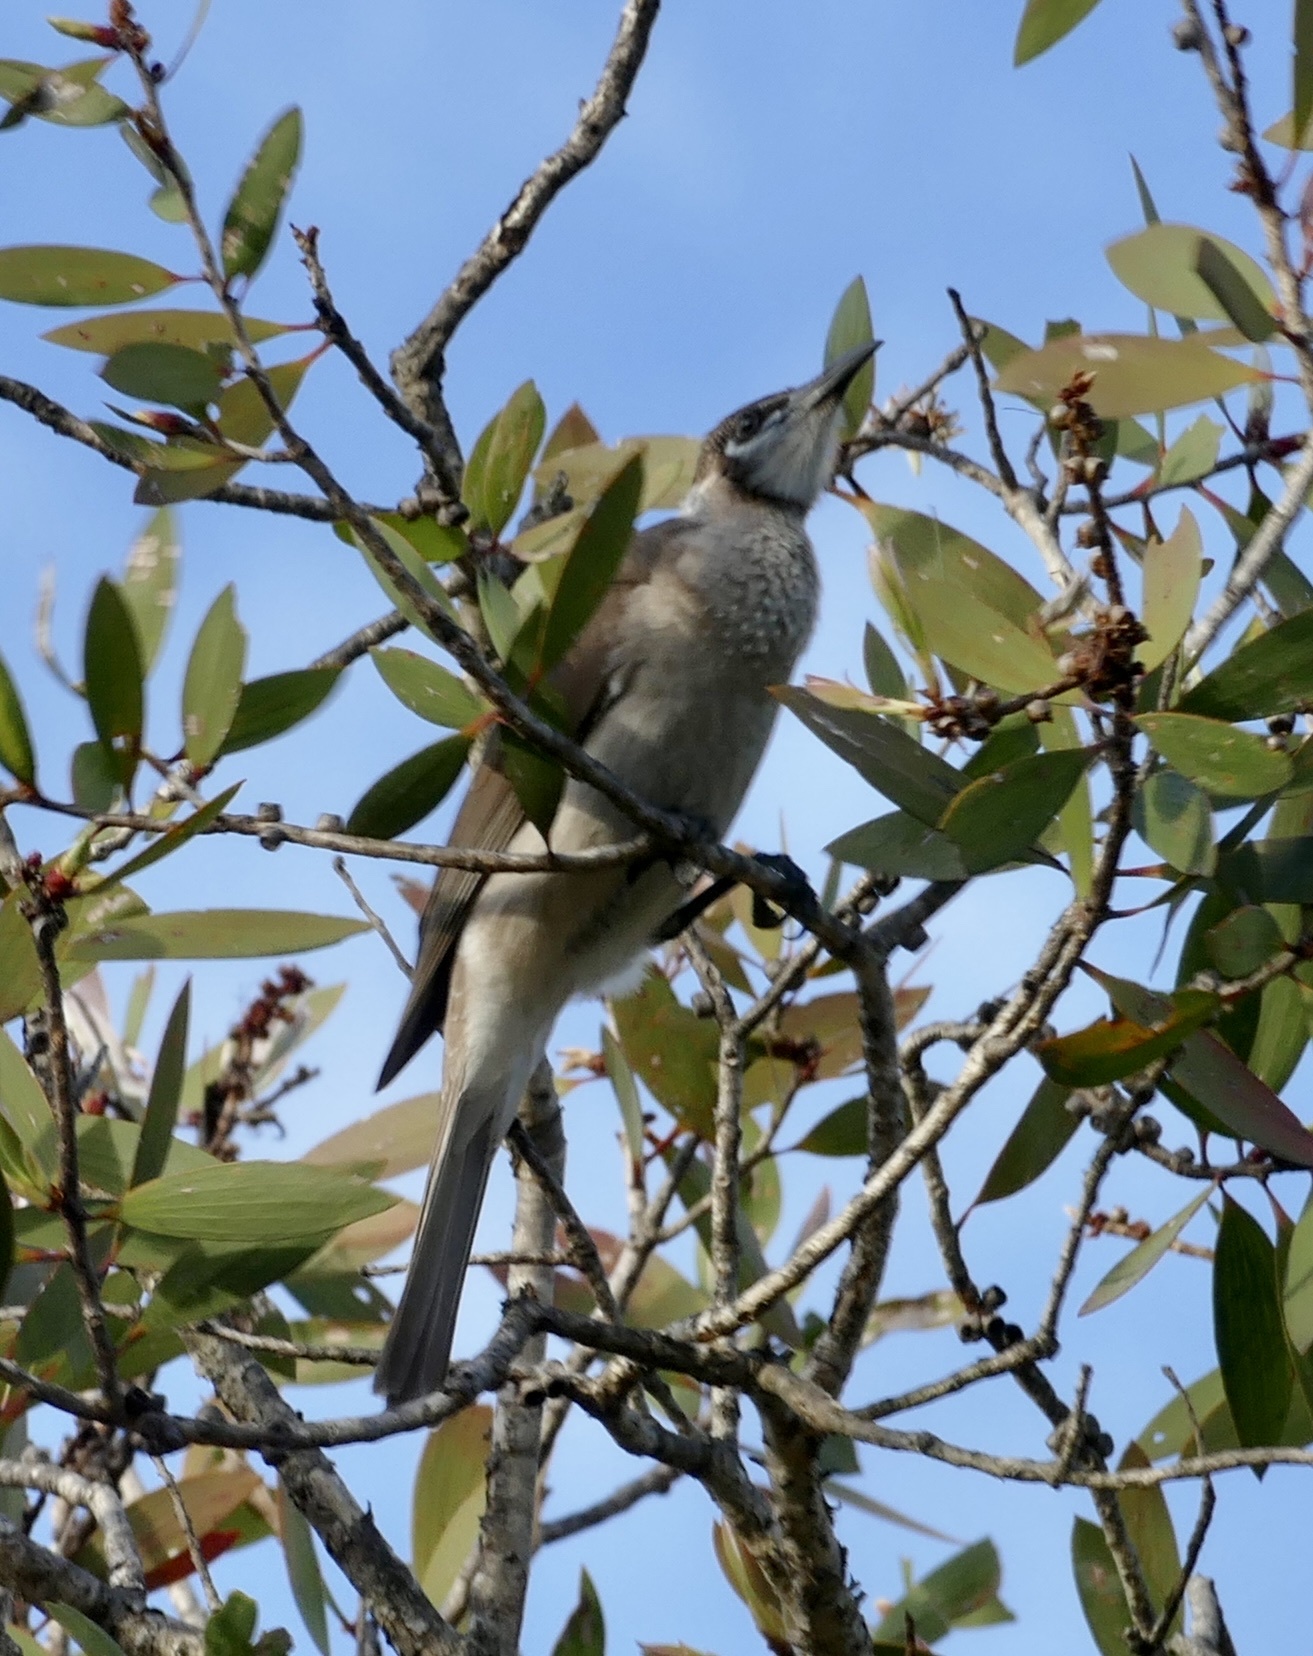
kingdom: Animalia
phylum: Chordata
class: Aves
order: Passeriformes
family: Meliphagidae
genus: Philemon
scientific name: Philemon citreogularis
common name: Little friarbird
